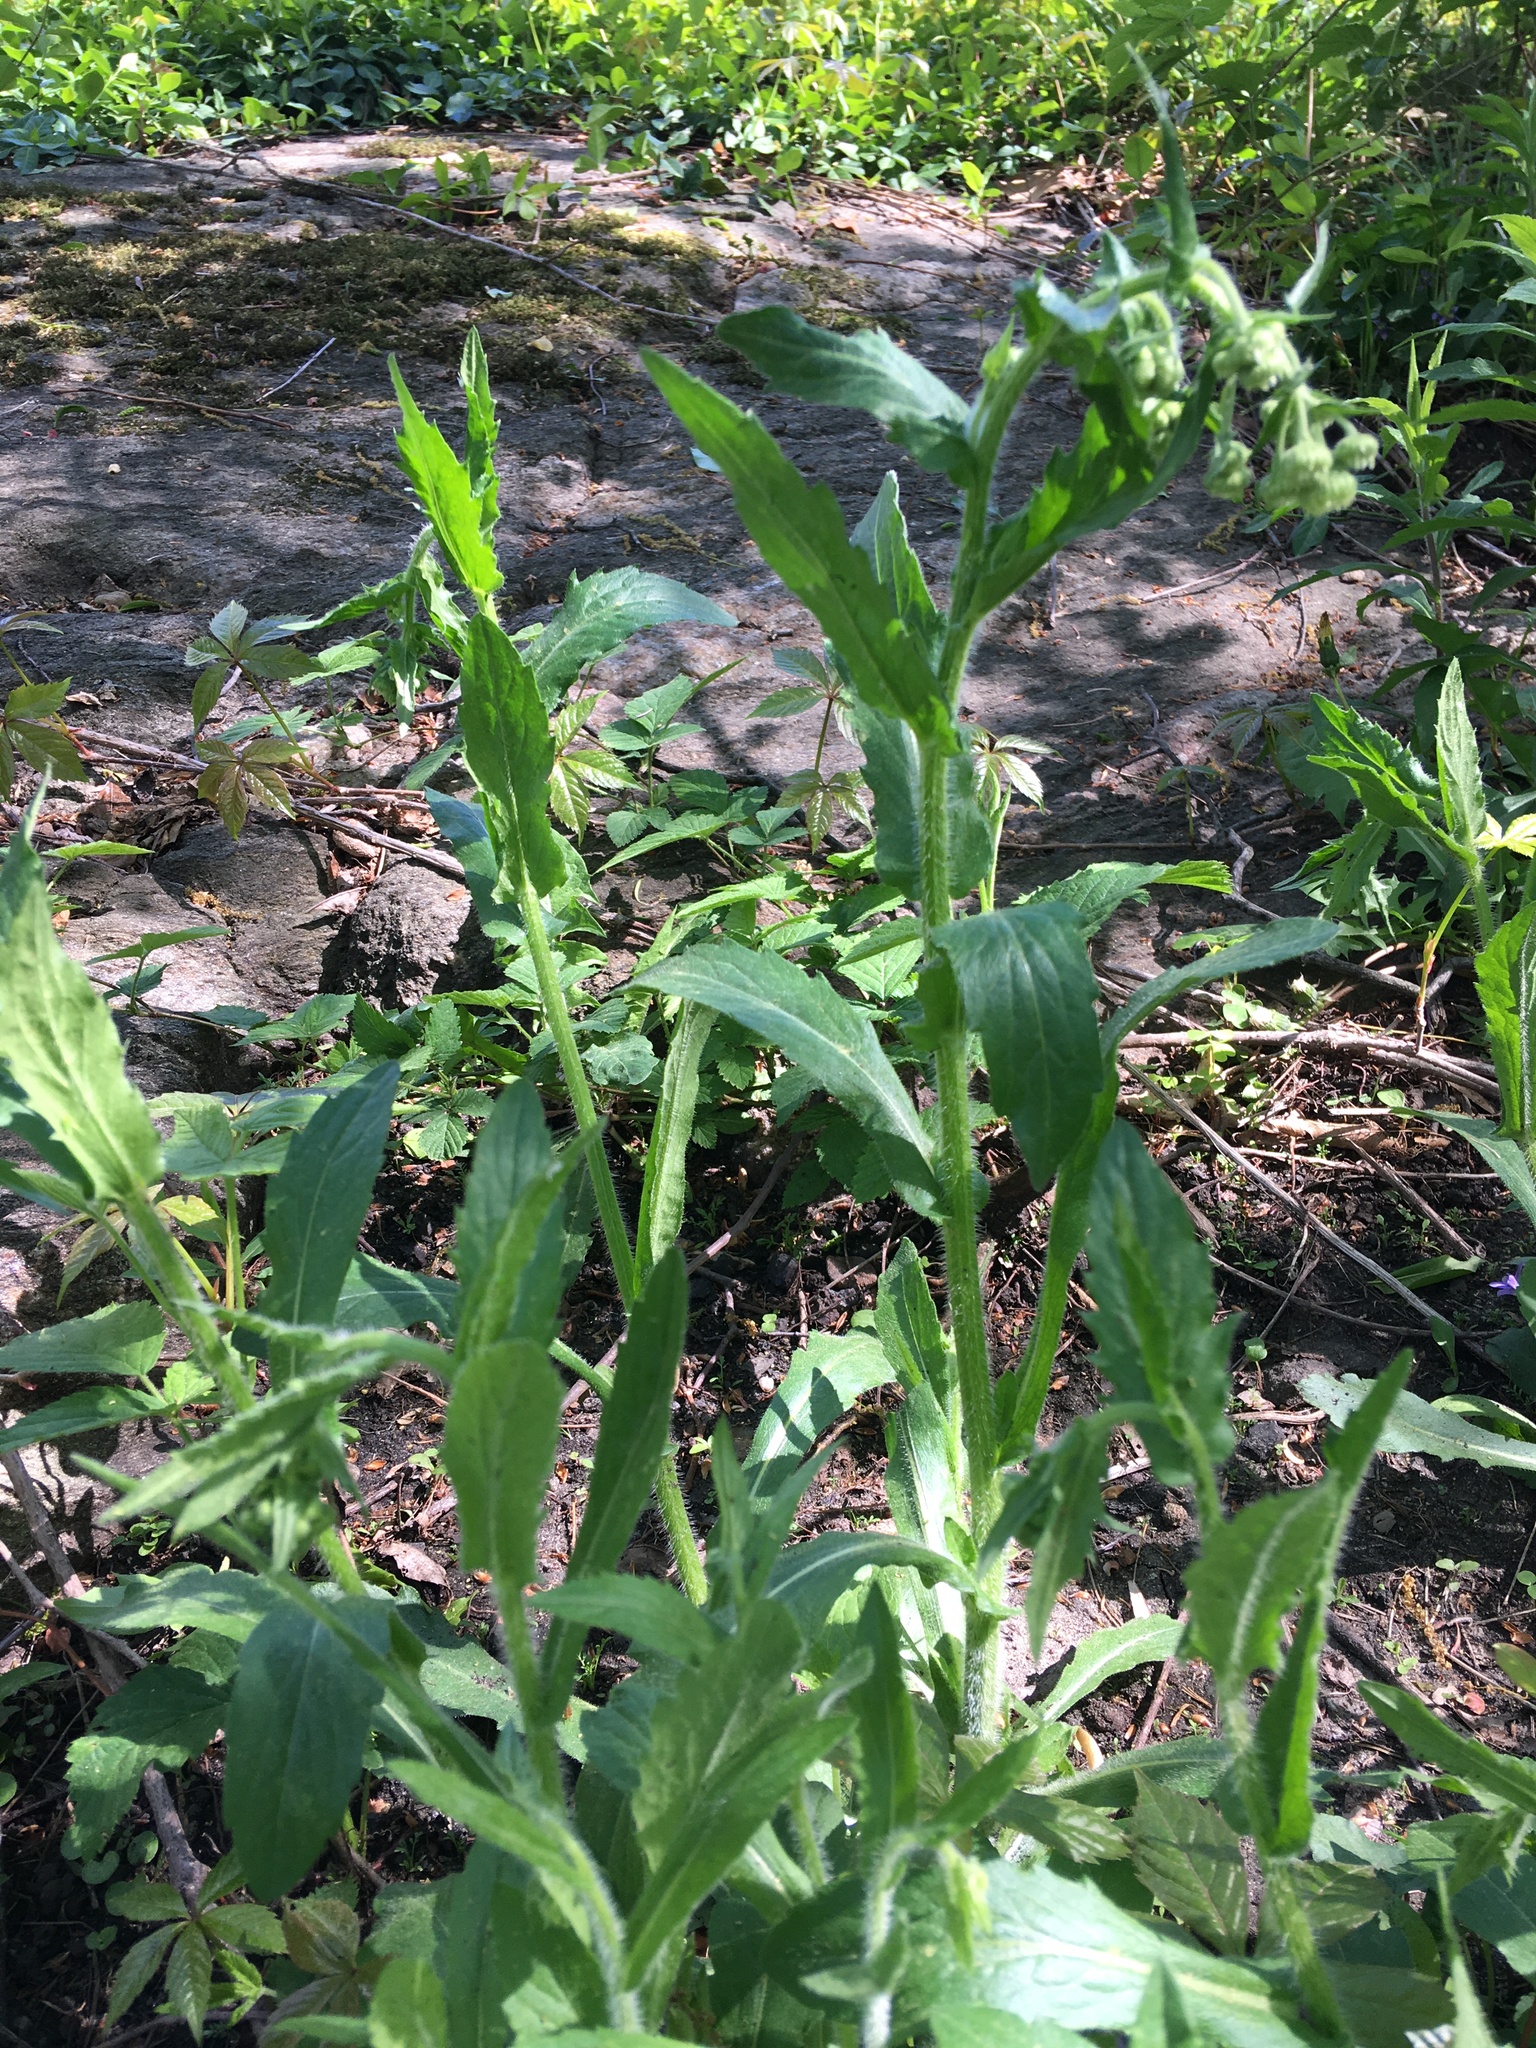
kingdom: Plantae
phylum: Tracheophyta
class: Magnoliopsida
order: Asterales
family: Asteraceae
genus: Erigeron
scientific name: Erigeron philadelphicus
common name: Robin's-plantain
